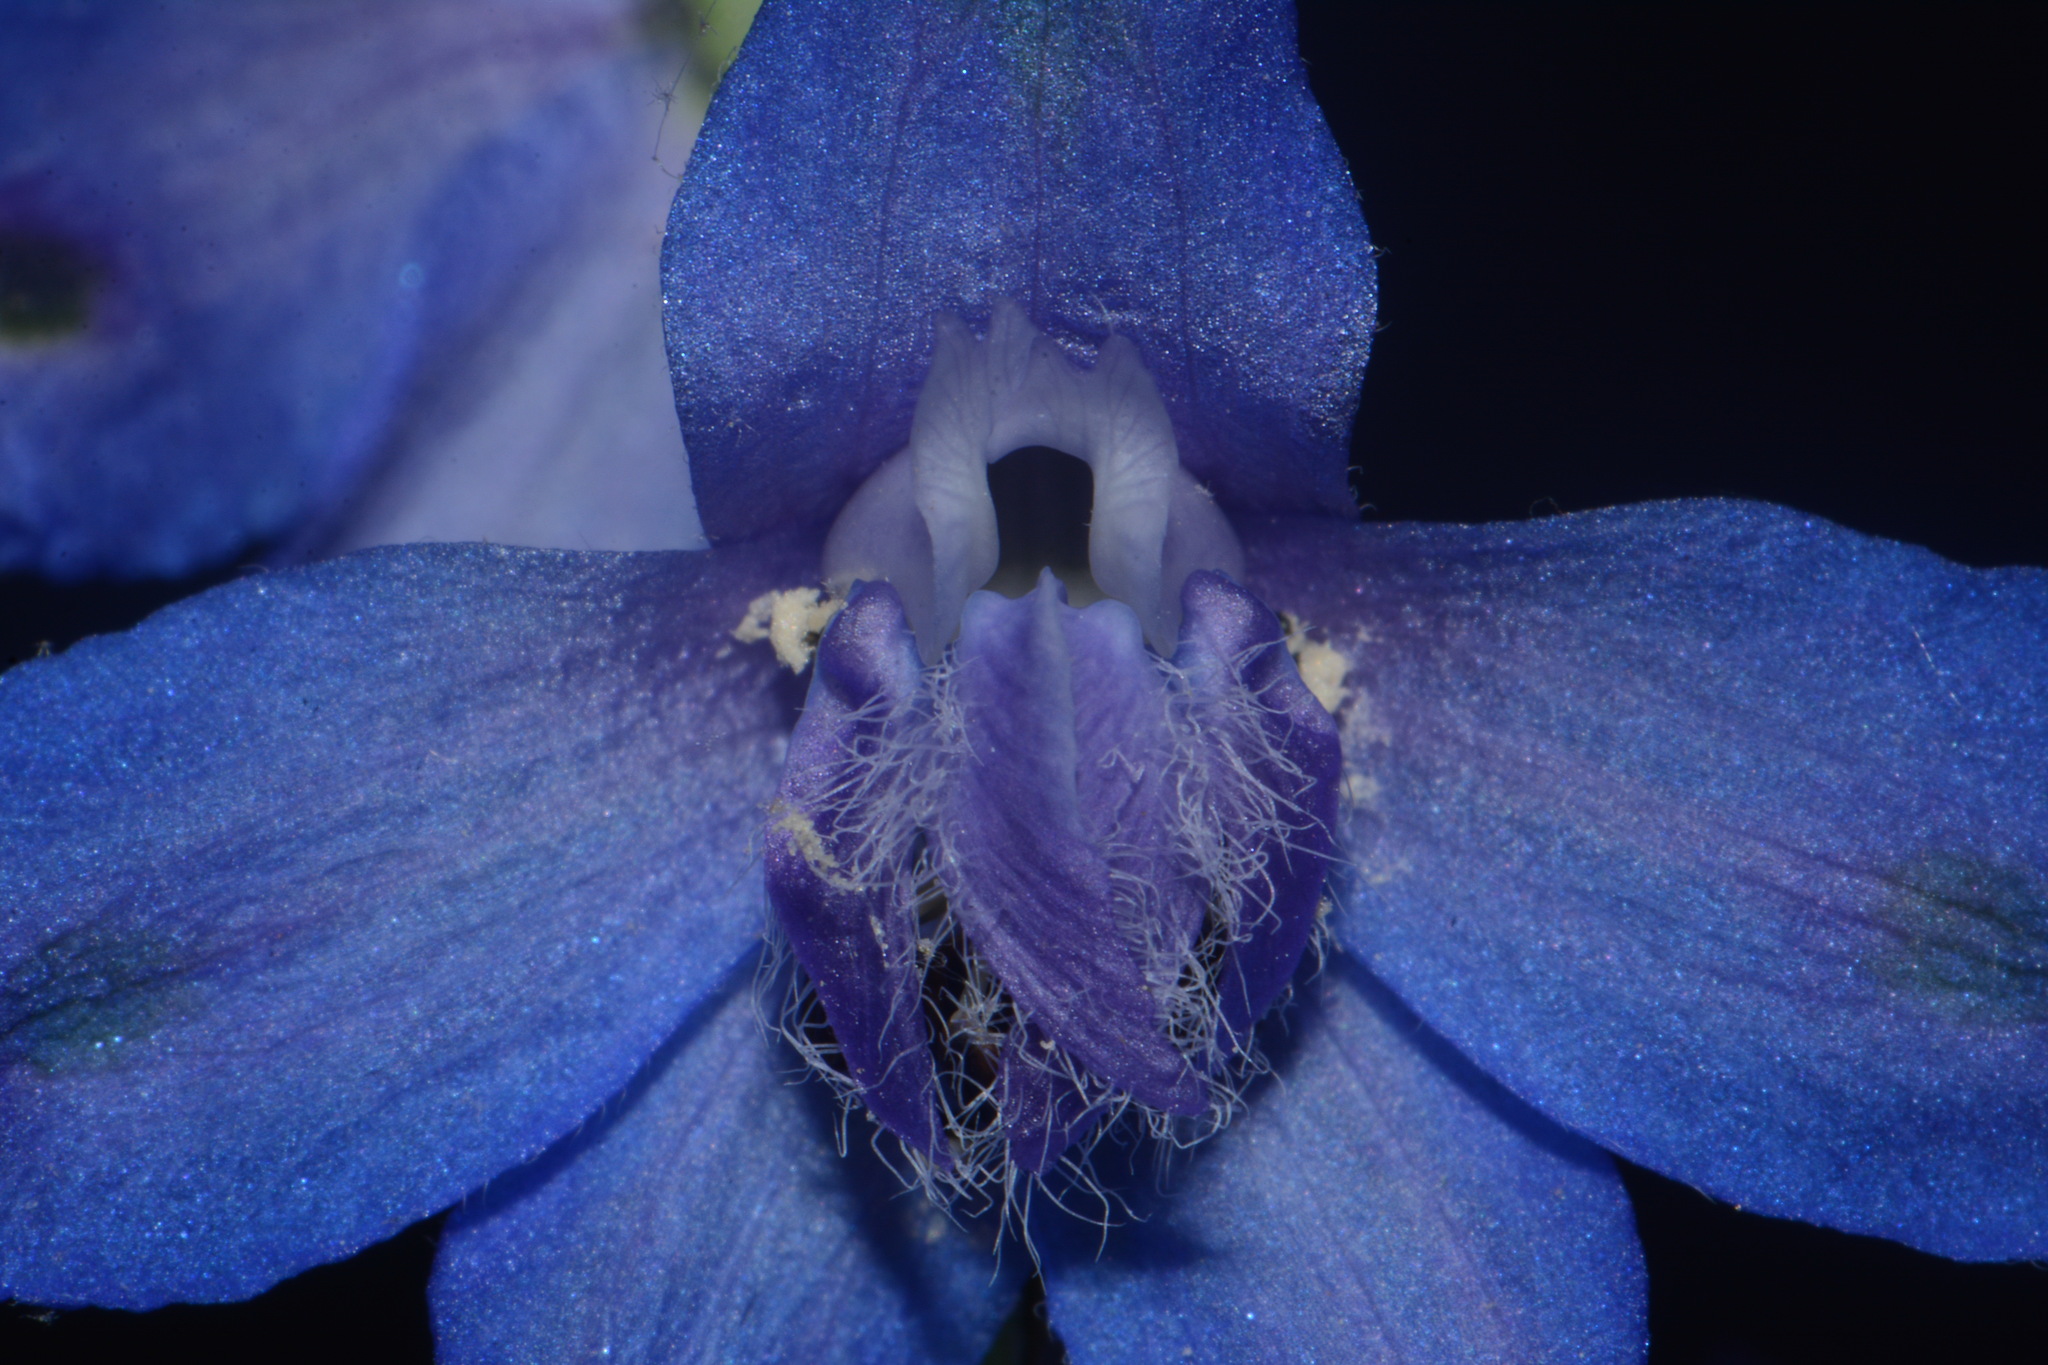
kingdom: Plantae
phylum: Tracheophyta
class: Magnoliopsida
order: Ranunculales
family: Ranunculaceae
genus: Delphinium
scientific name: Delphinium carolinianum
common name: Carolina larkspur
